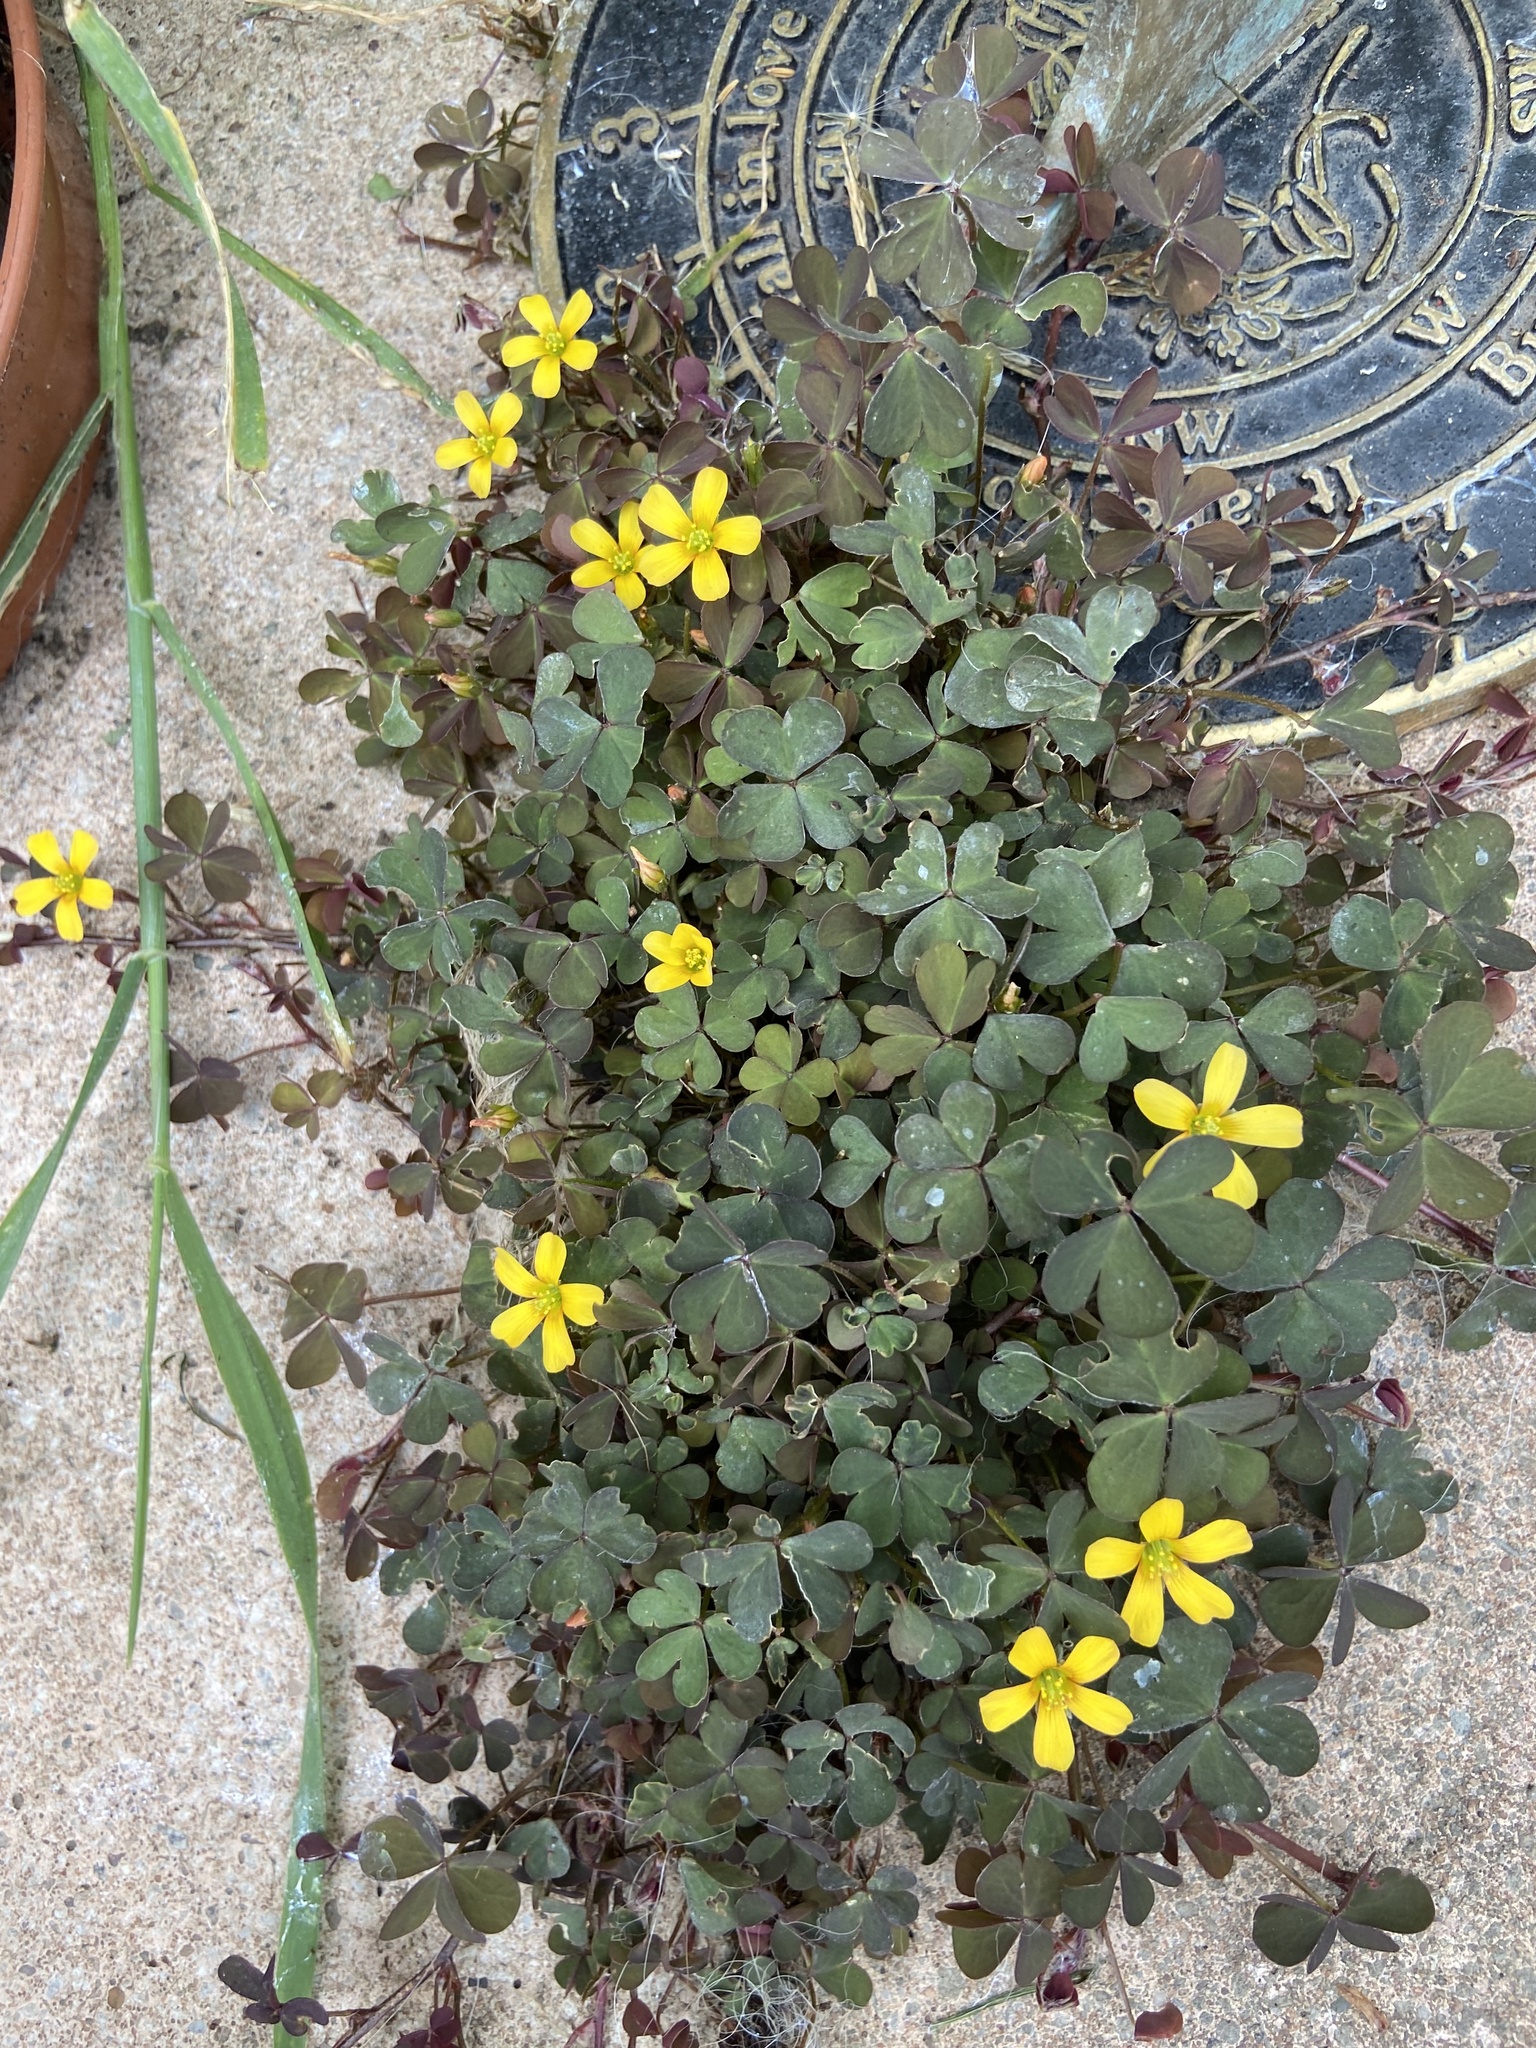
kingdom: Plantae
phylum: Tracheophyta
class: Magnoliopsida
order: Oxalidales
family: Oxalidaceae
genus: Oxalis
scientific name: Oxalis corniculata
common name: Procumbent yellow-sorrel
